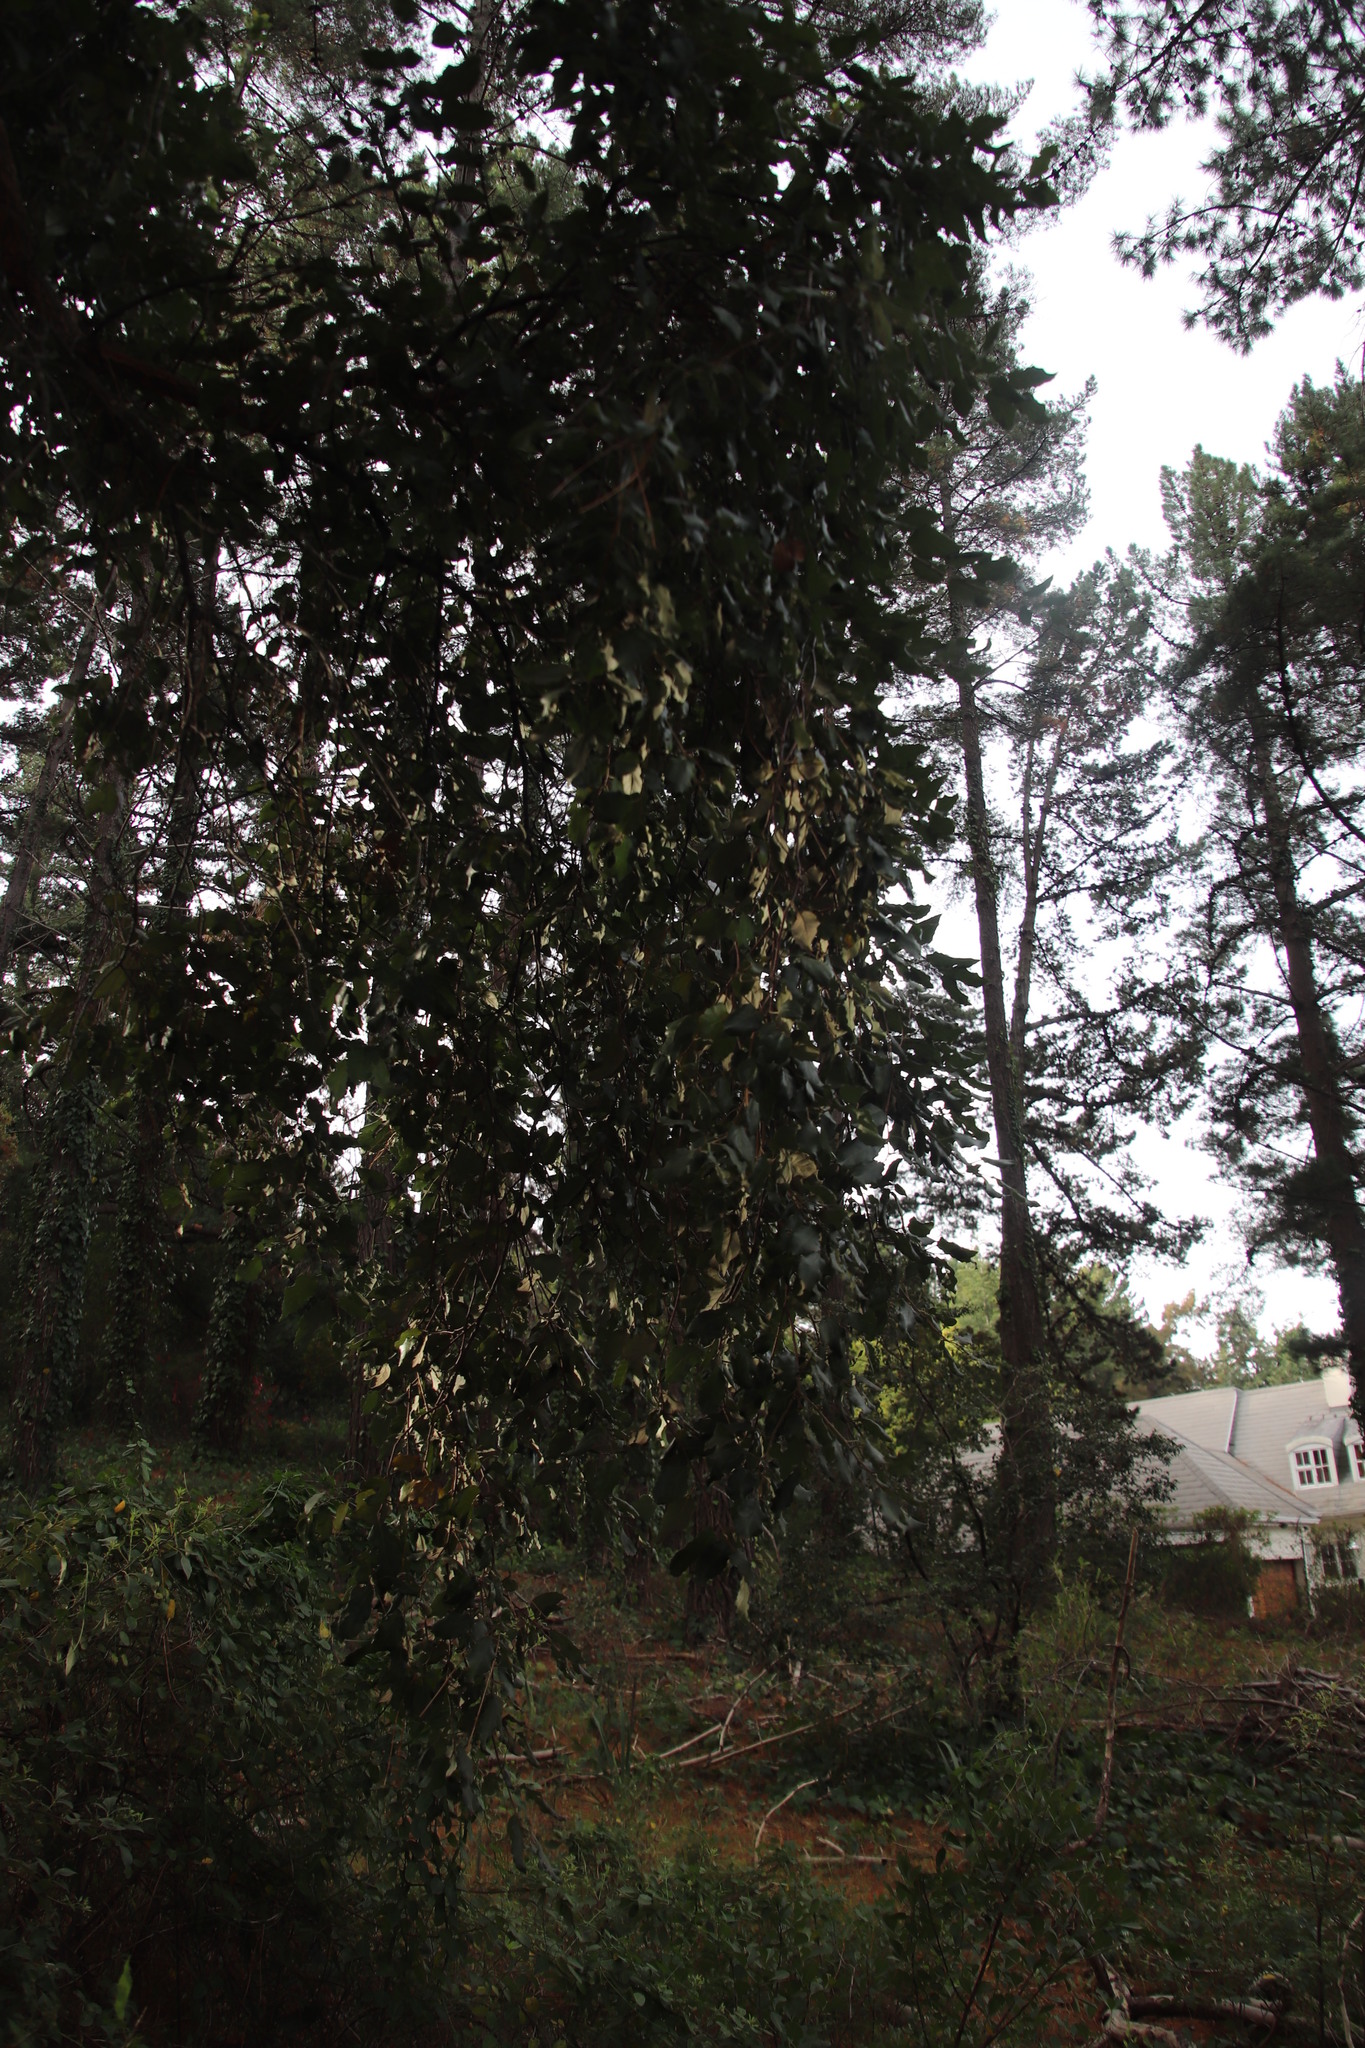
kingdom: Plantae
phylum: Tracheophyta
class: Magnoliopsida
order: Fagales
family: Fagaceae
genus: Quercus
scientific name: Quercus suber
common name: Cork oak
